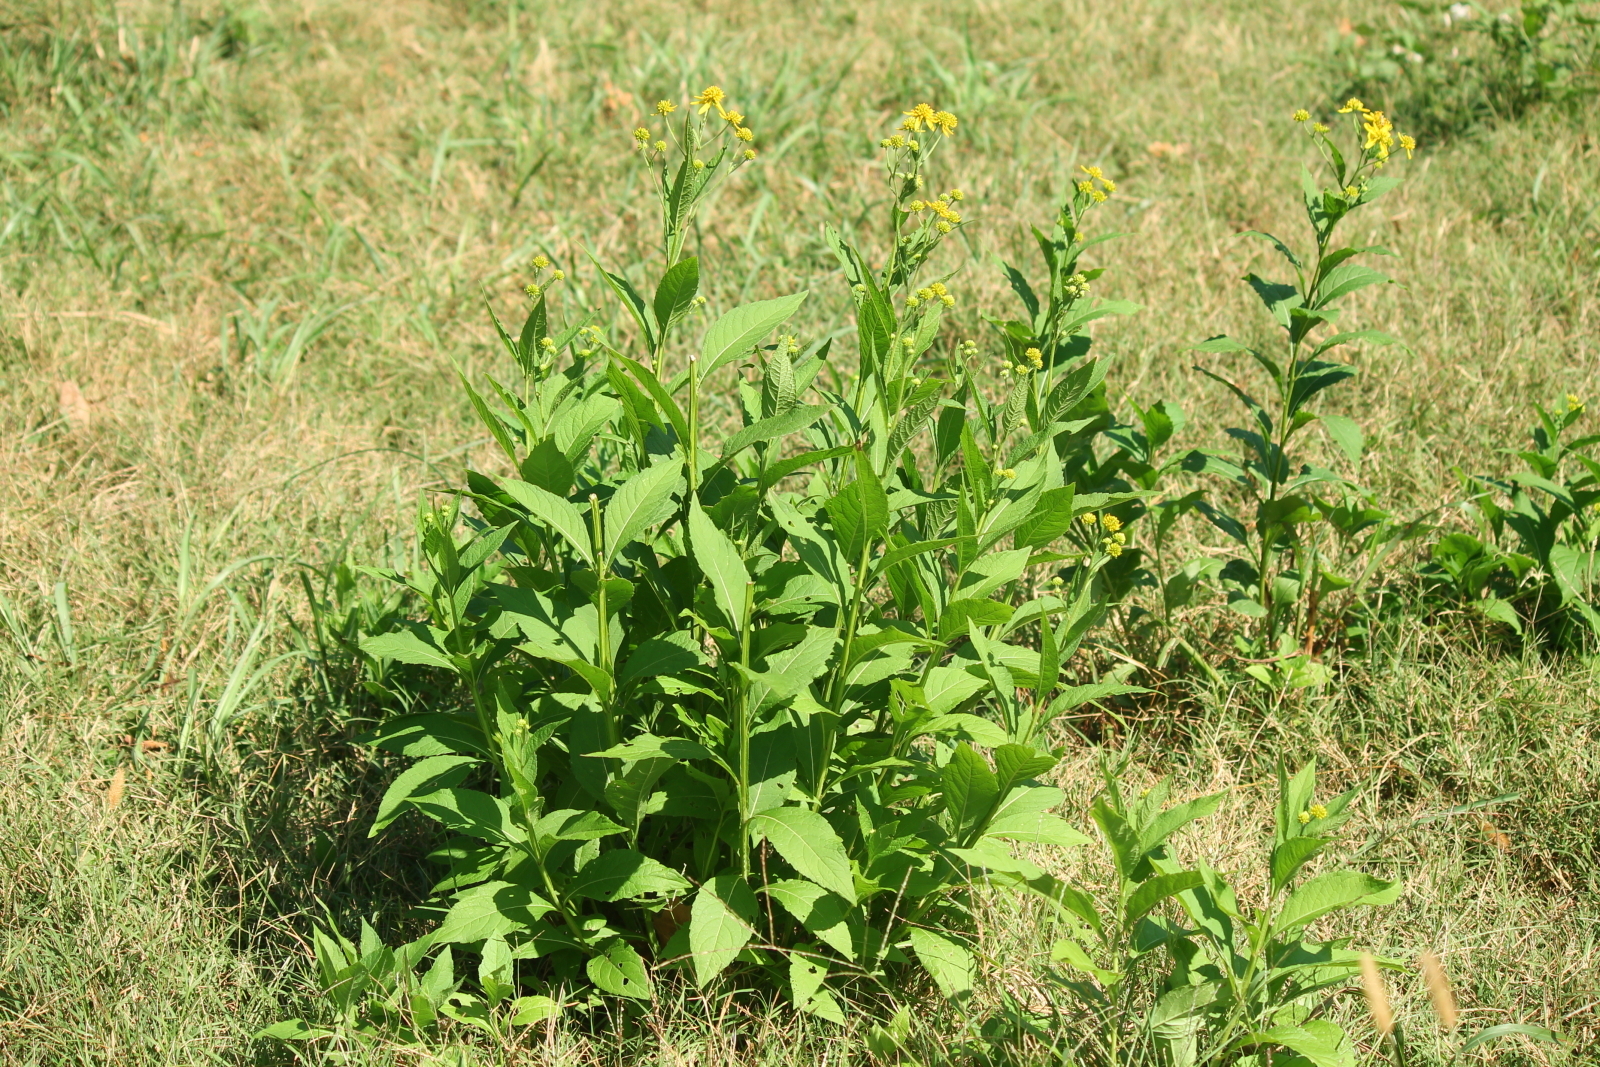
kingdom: Plantae
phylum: Tracheophyta
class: Magnoliopsida
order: Asterales
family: Asteraceae
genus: Verbesina
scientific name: Verbesina alternifolia
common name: Wingstem
